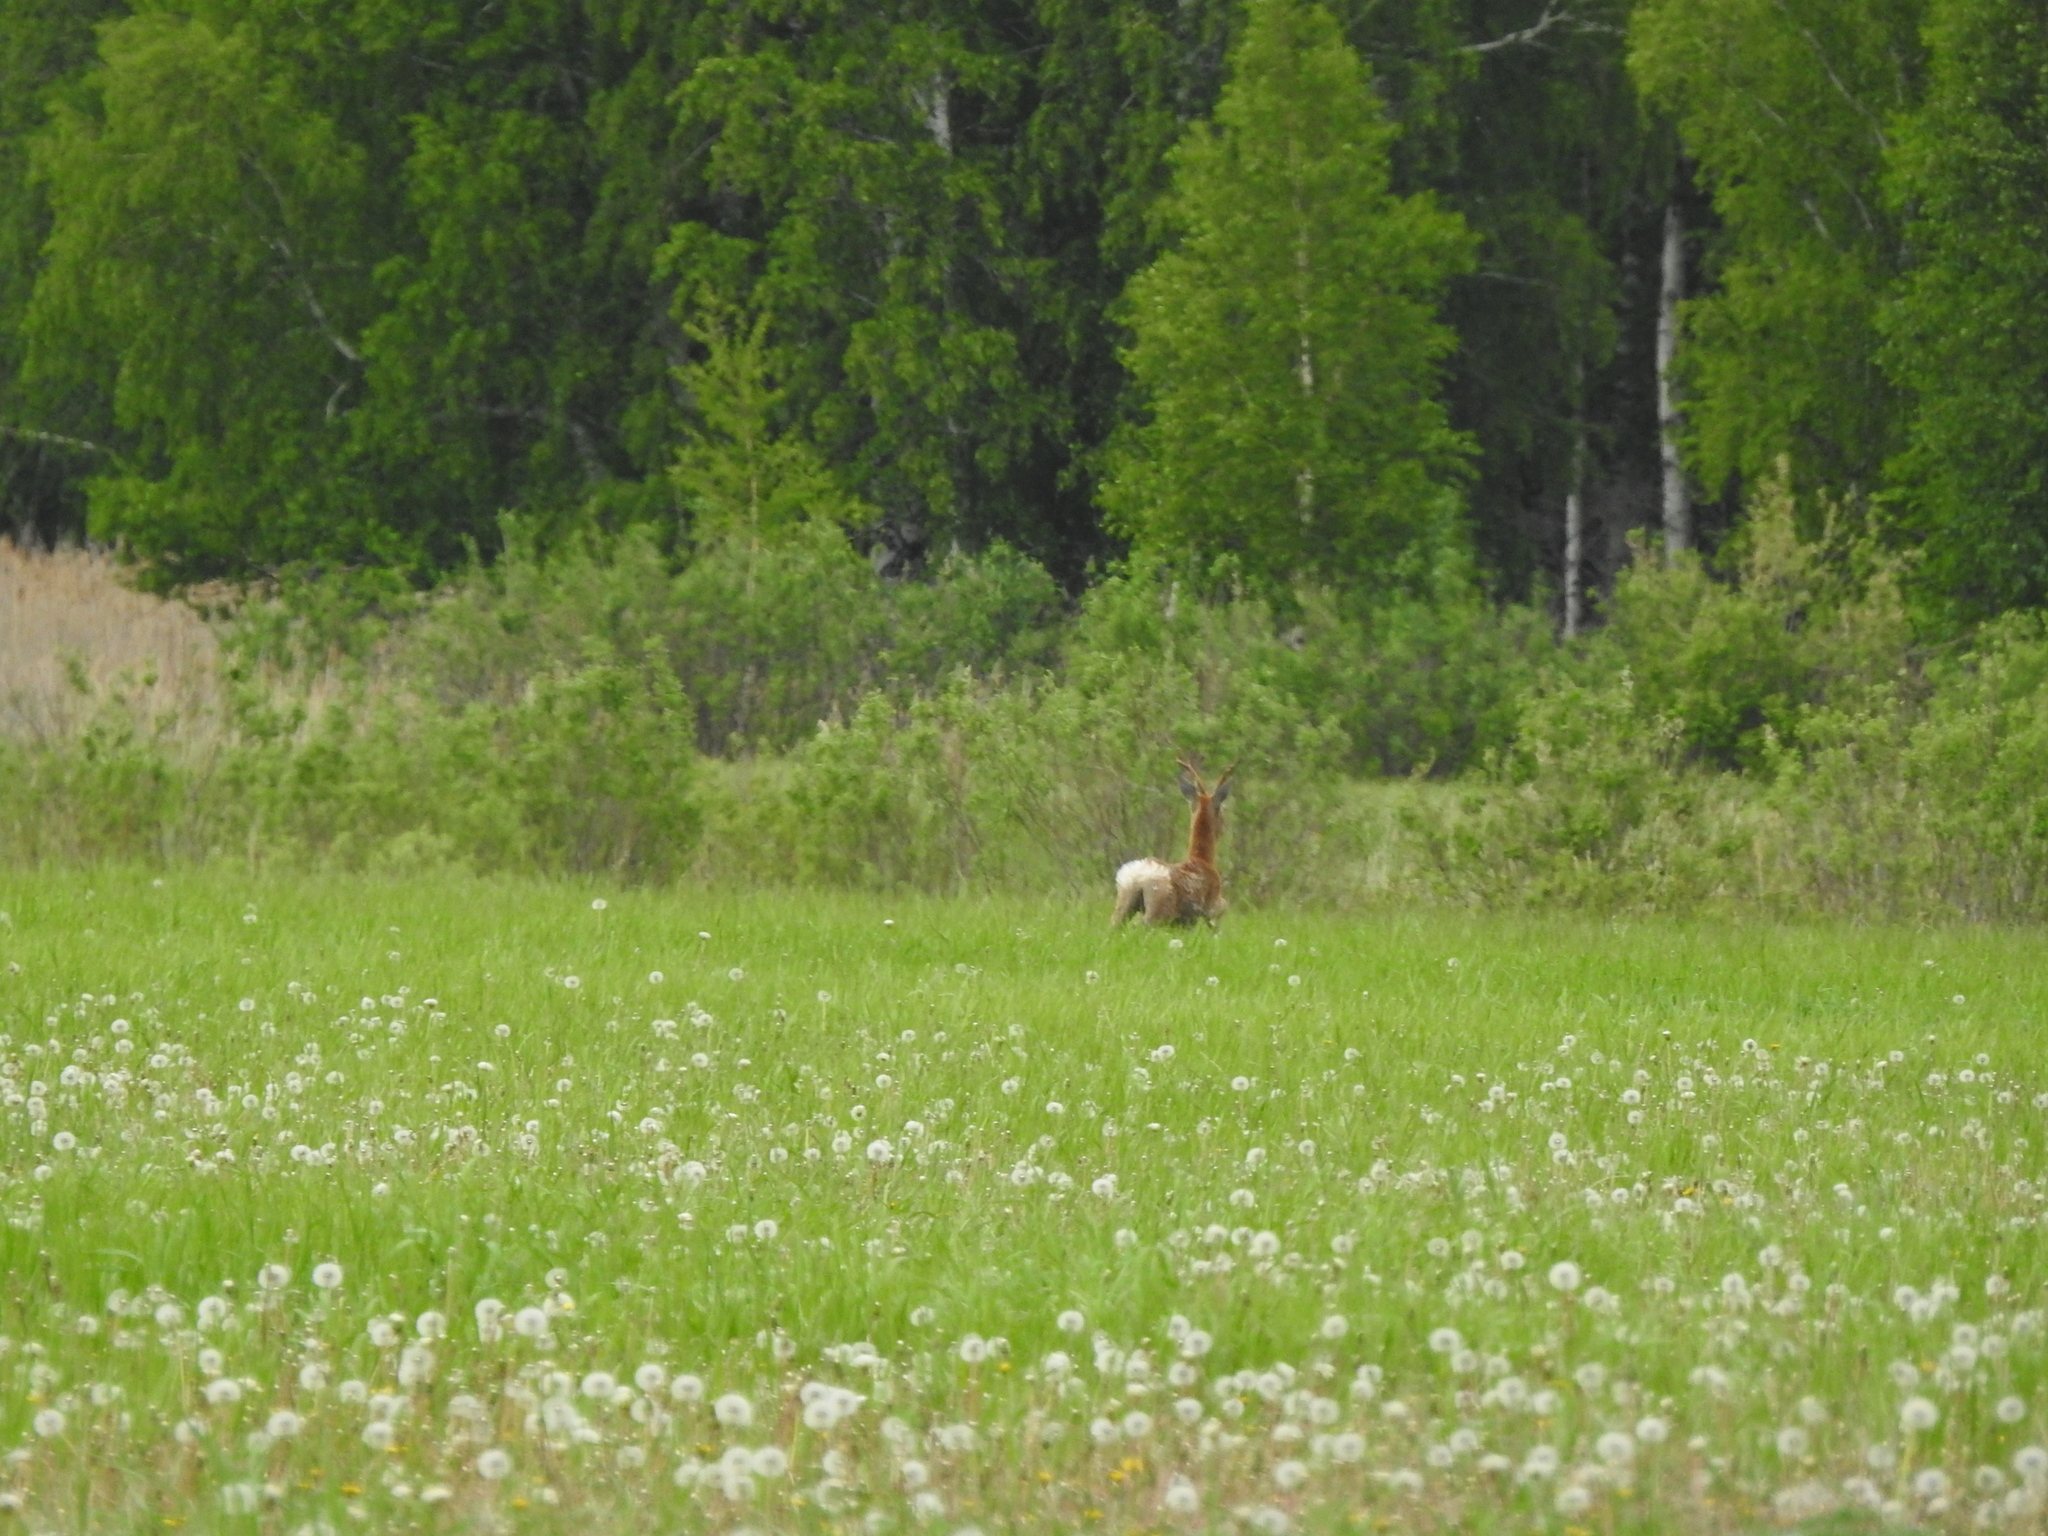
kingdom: Animalia
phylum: Chordata
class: Mammalia
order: Artiodactyla
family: Cervidae
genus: Capreolus
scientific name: Capreolus pygargus
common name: Siberian roe
